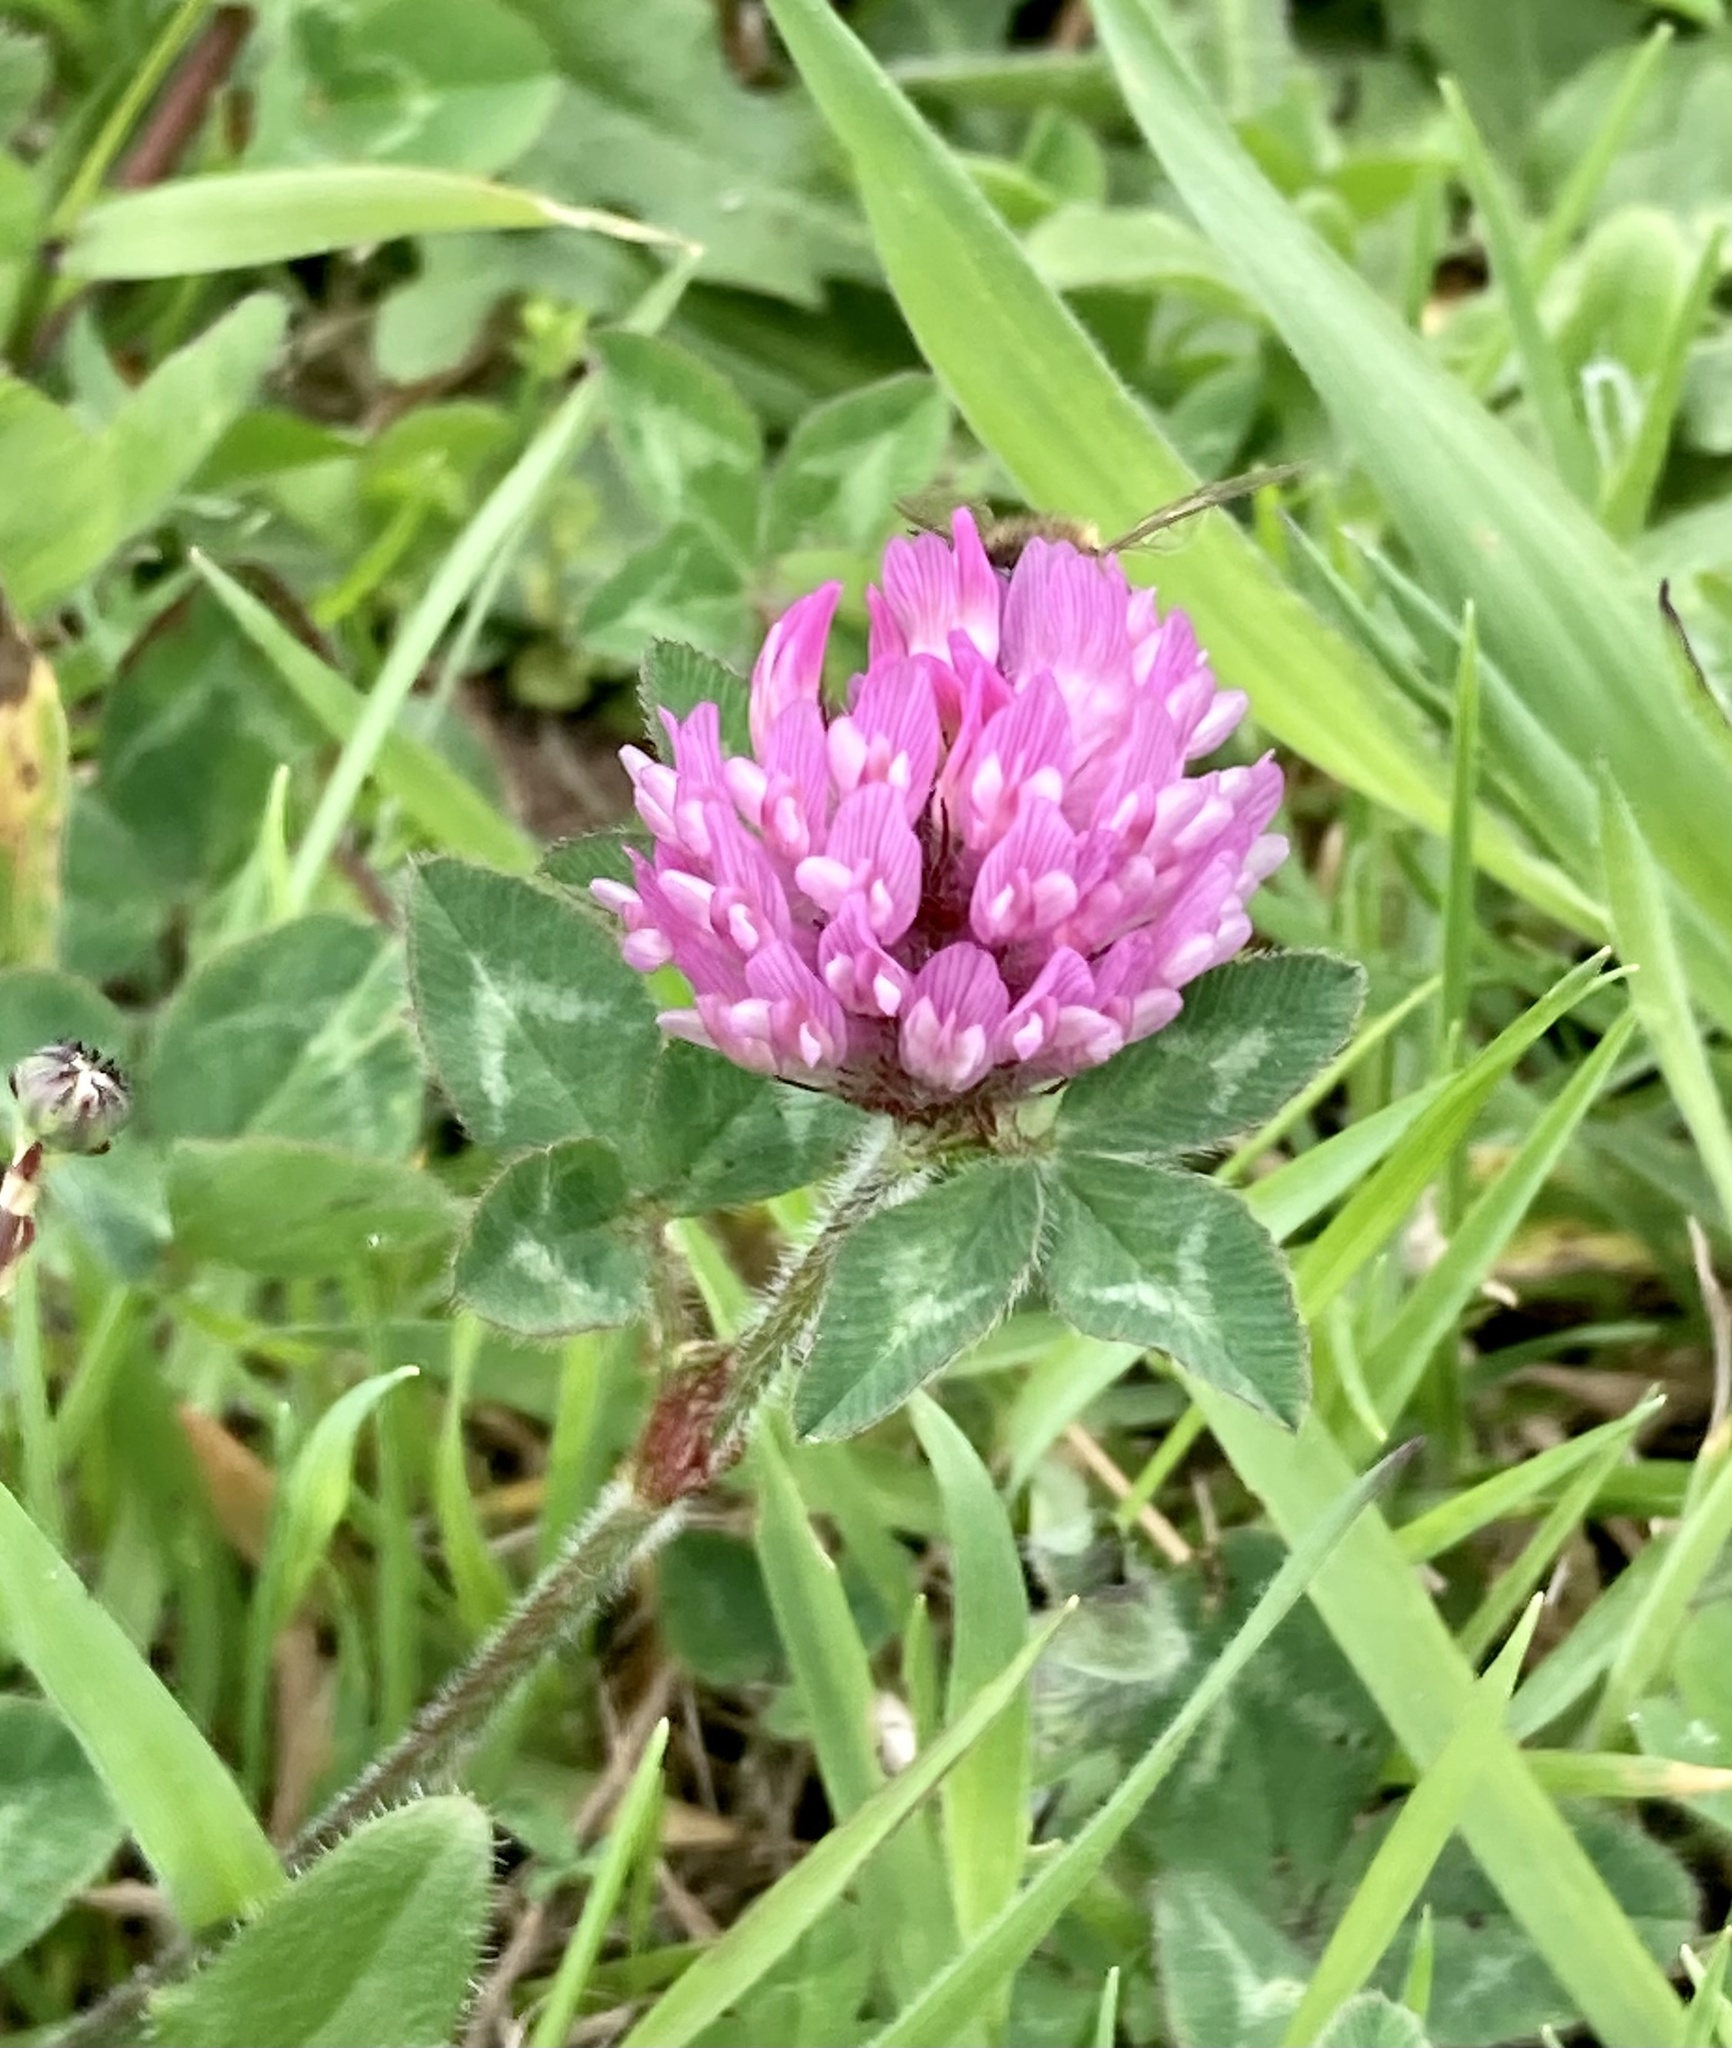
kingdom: Plantae
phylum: Tracheophyta
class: Magnoliopsida
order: Fabales
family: Fabaceae
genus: Trifolium
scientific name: Trifolium pratense
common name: Red clover
